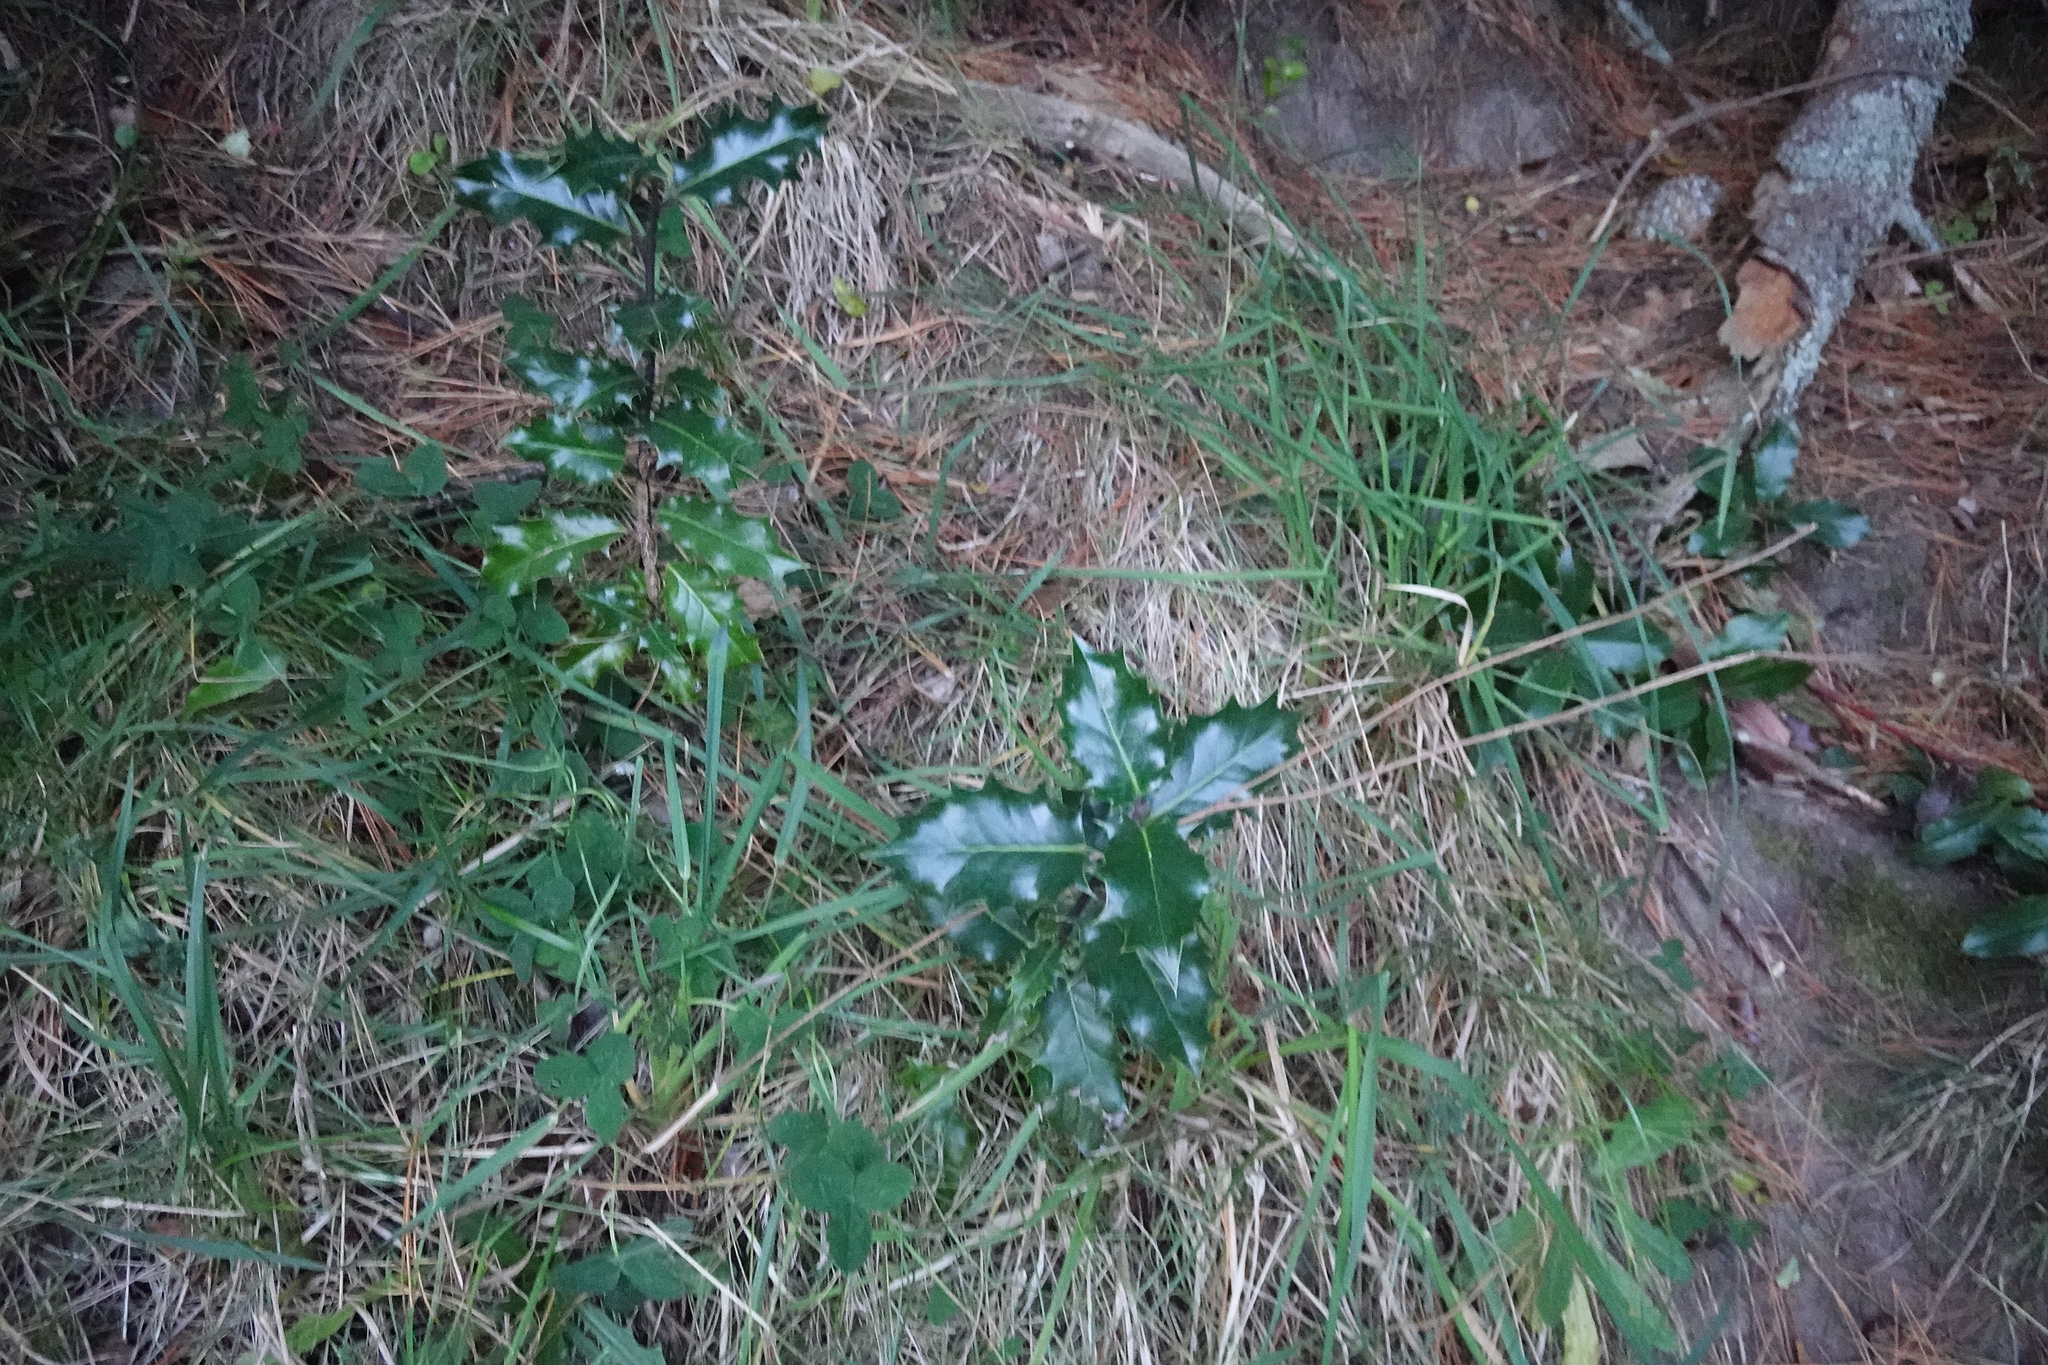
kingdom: Plantae
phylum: Tracheophyta
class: Magnoliopsida
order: Aquifoliales
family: Aquifoliaceae
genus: Ilex
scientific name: Ilex aquifolium
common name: English holly
